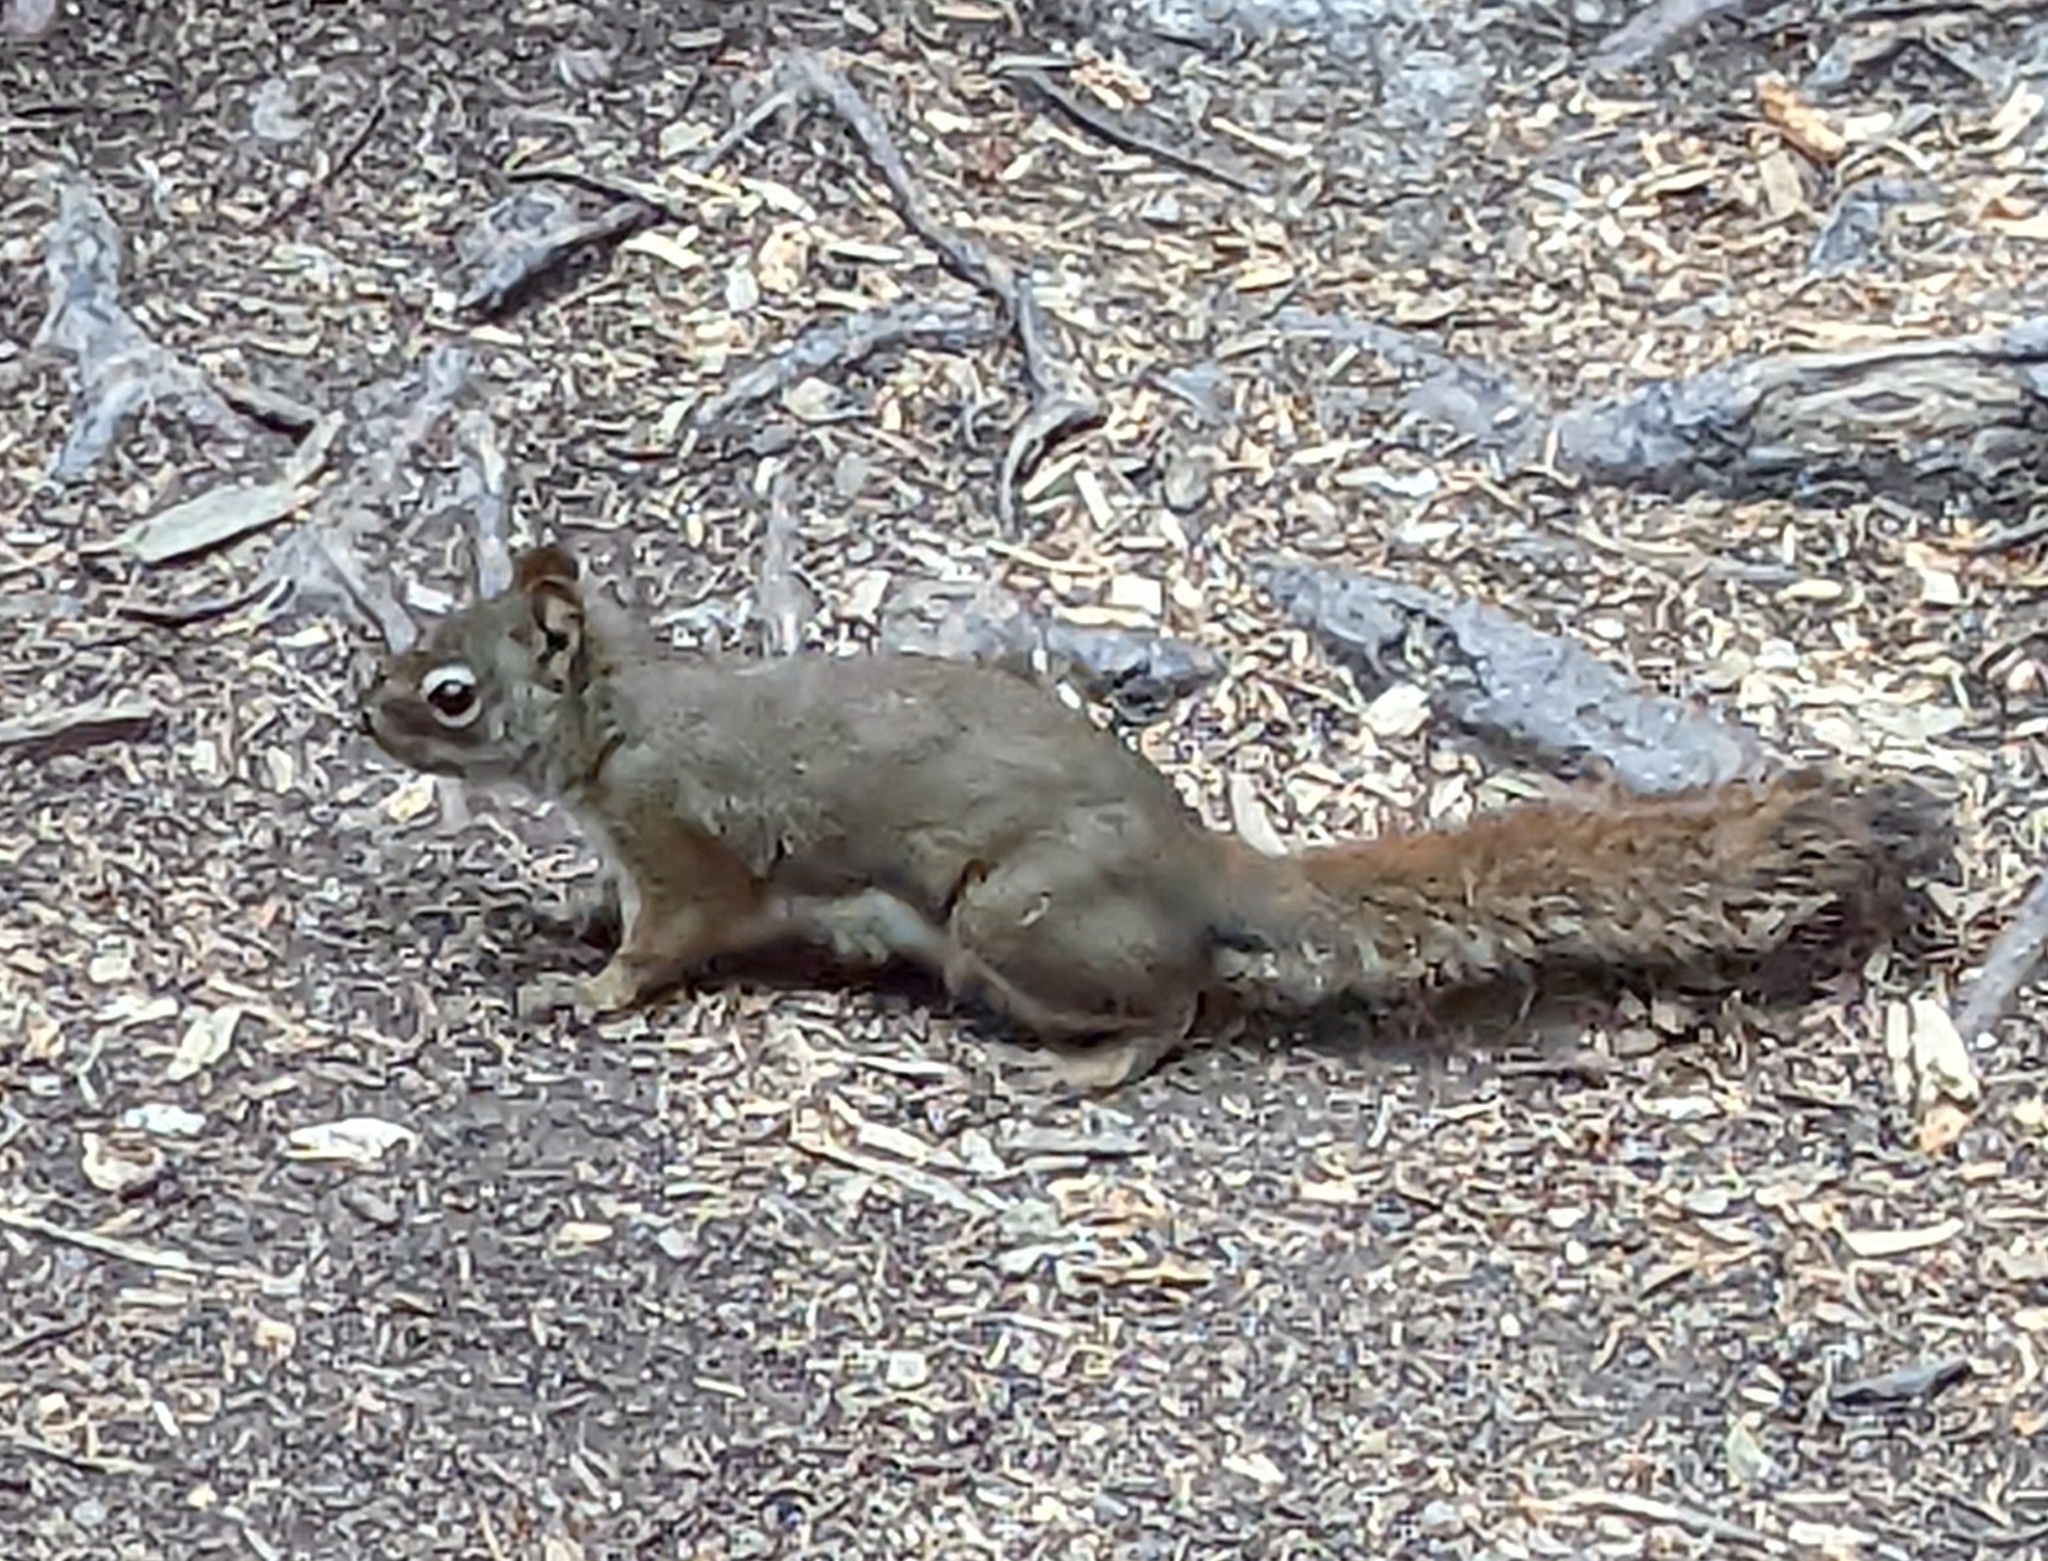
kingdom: Animalia
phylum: Chordata
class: Mammalia
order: Rodentia
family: Sciuridae
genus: Tamiasciurus
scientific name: Tamiasciurus hudsonicus
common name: Red squirrel
